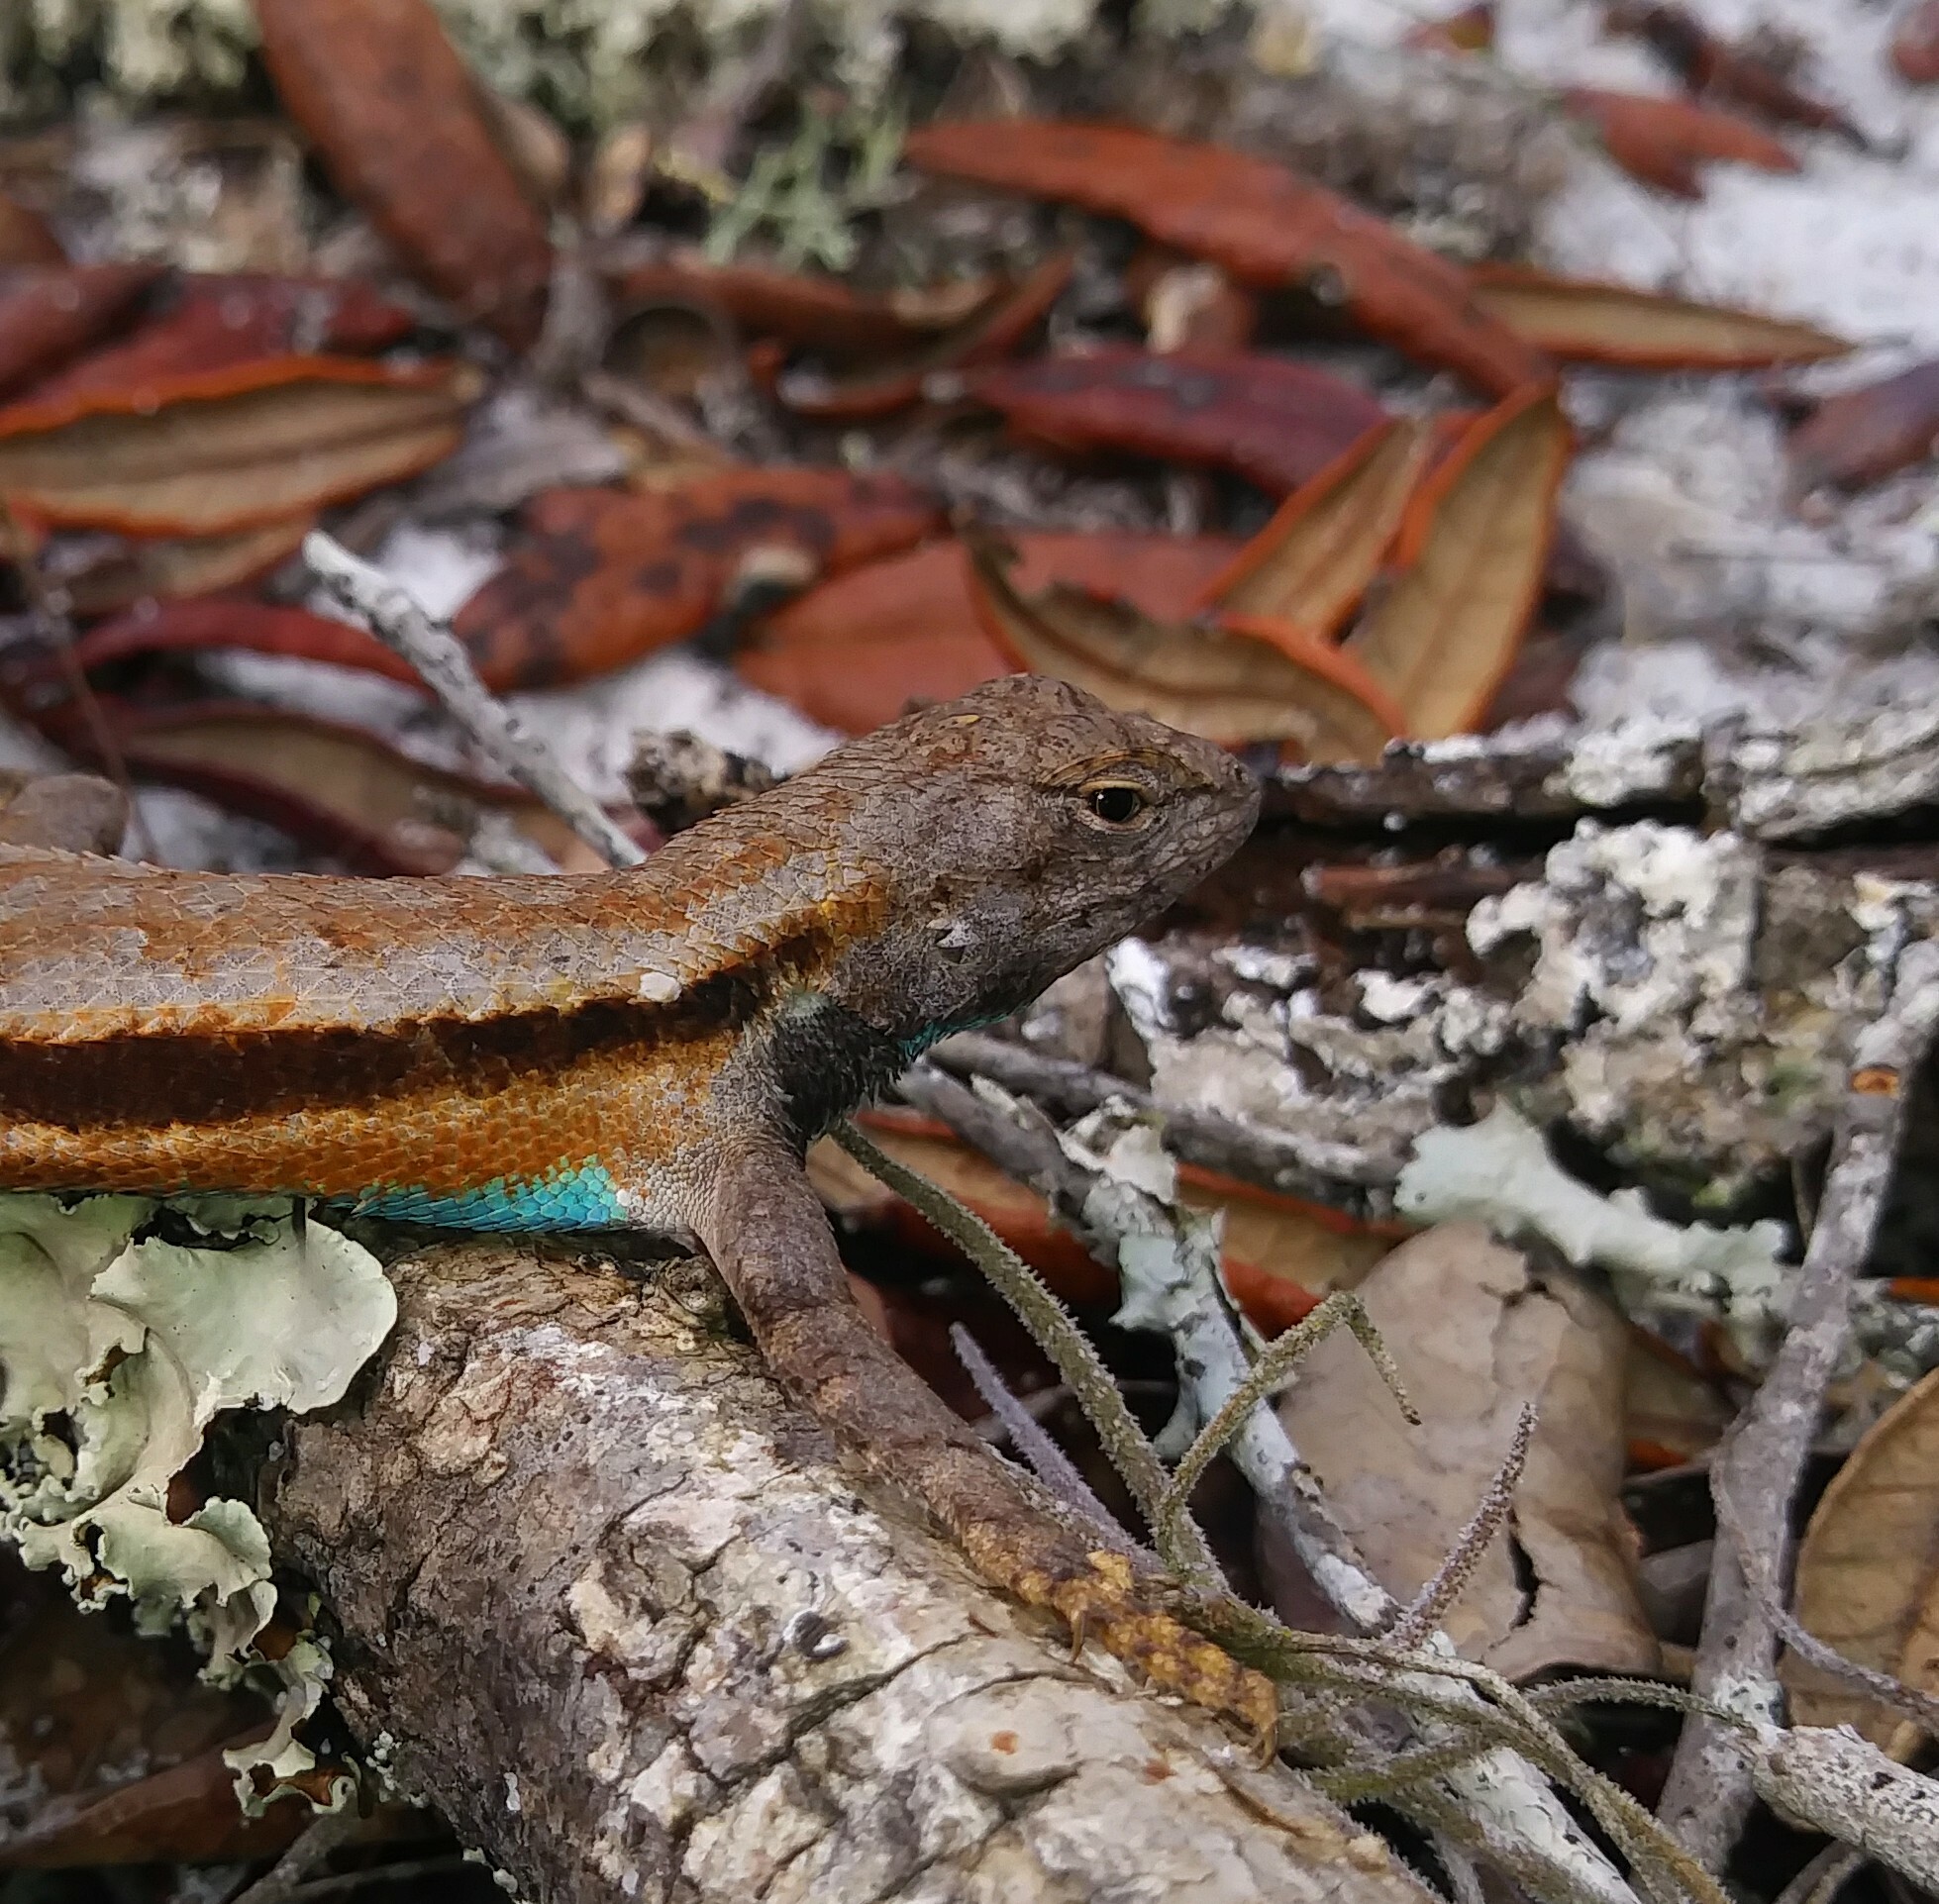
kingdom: Animalia
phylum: Chordata
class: Squamata
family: Phrynosomatidae
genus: Sceloporus
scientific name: Sceloporus woodi
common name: Florida scrub lizard
